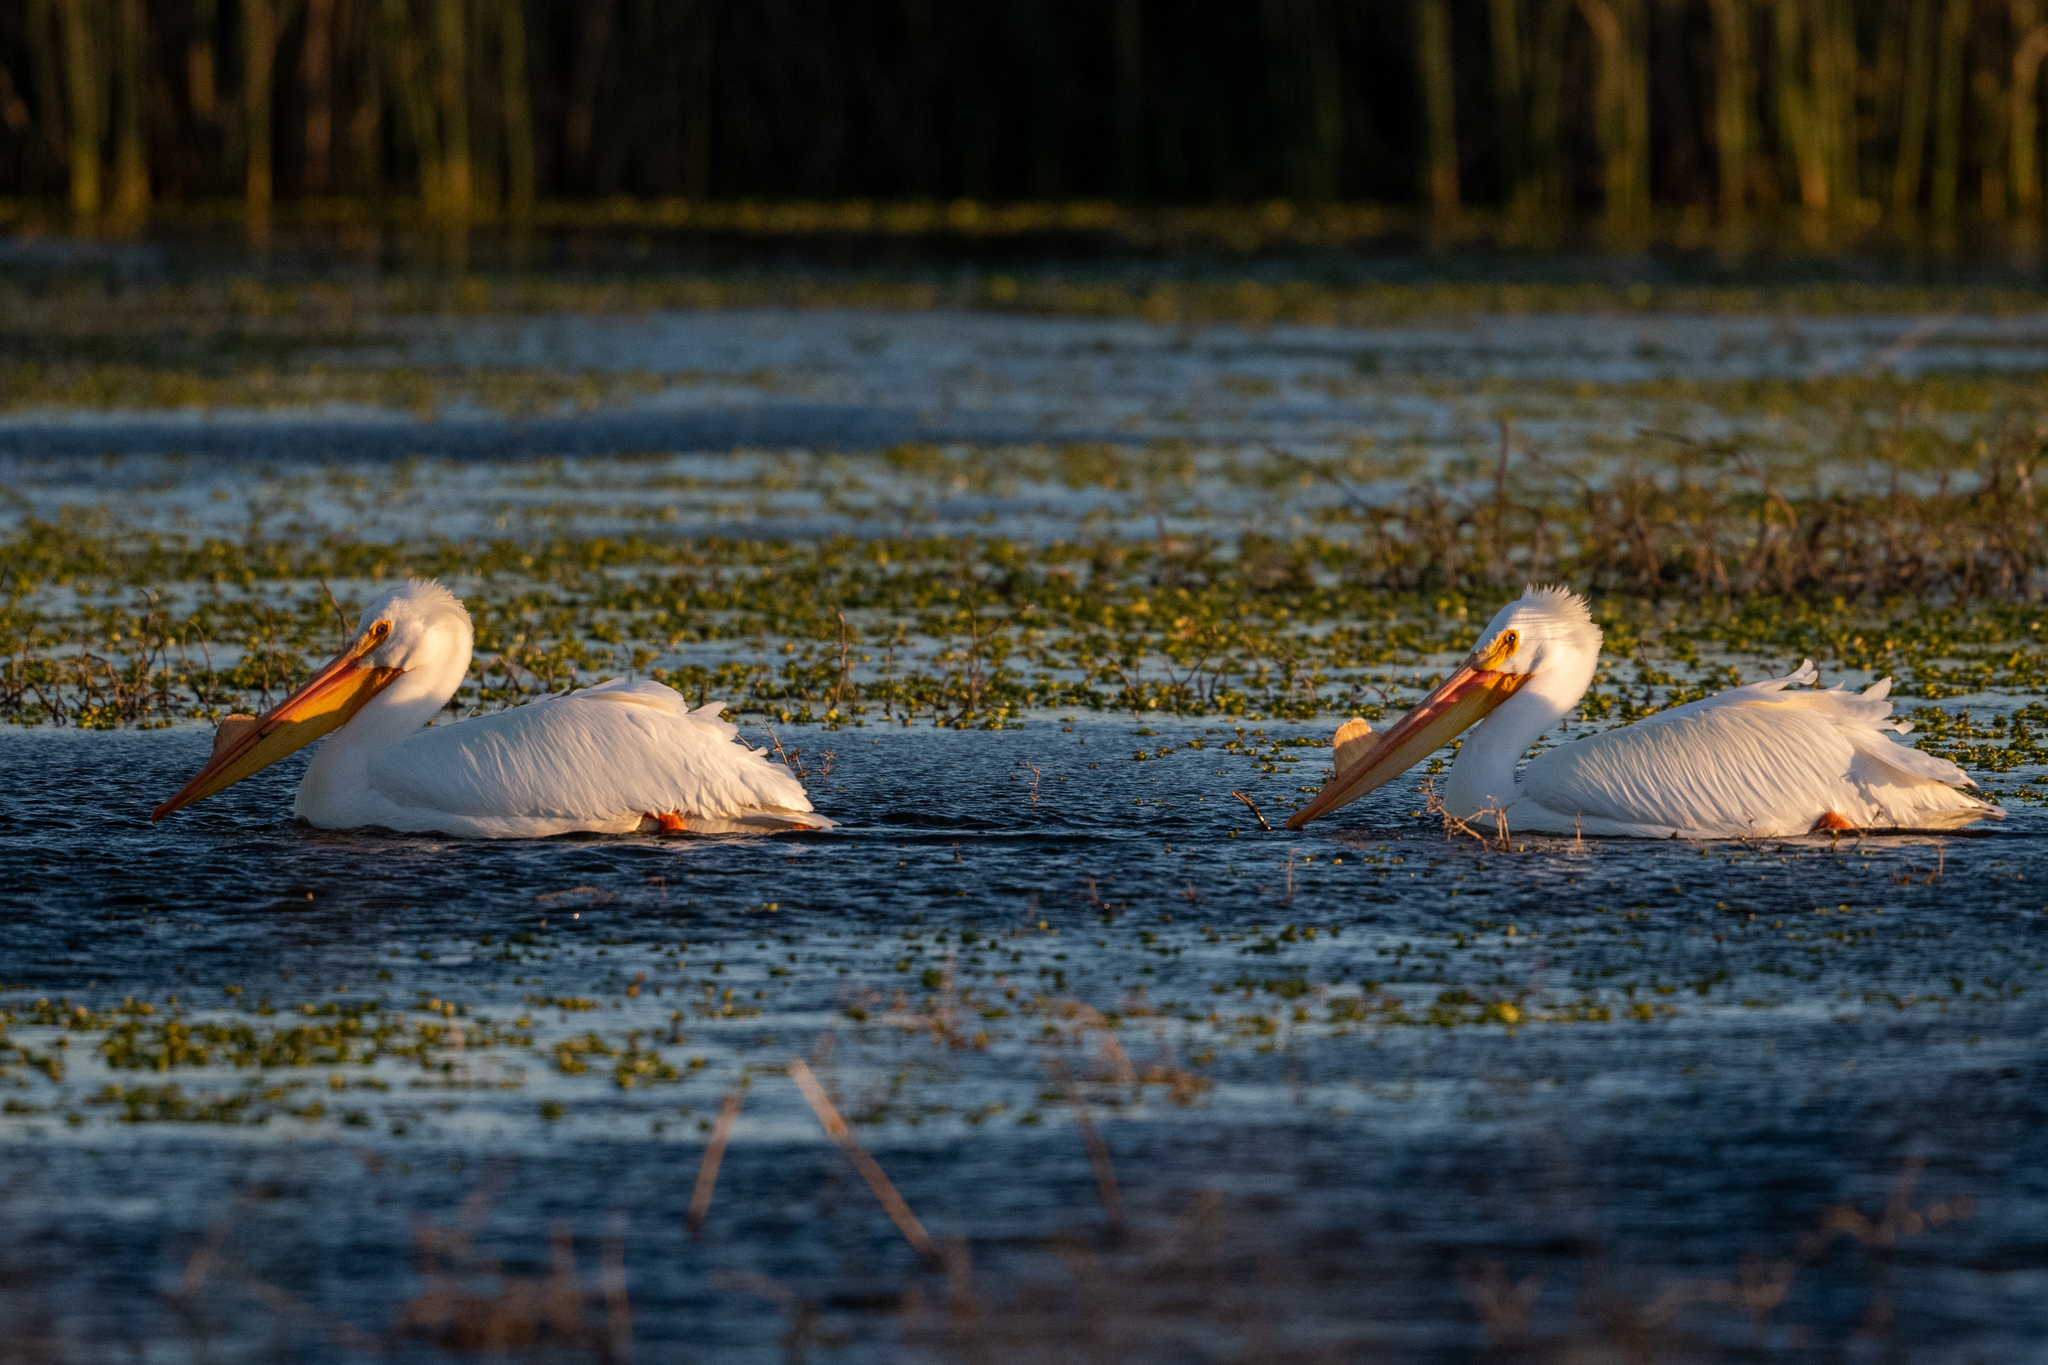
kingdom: Animalia
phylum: Chordata
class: Aves
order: Pelecaniformes
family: Pelecanidae
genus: Pelecanus
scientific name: Pelecanus erythrorhynchos
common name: American white pelican
